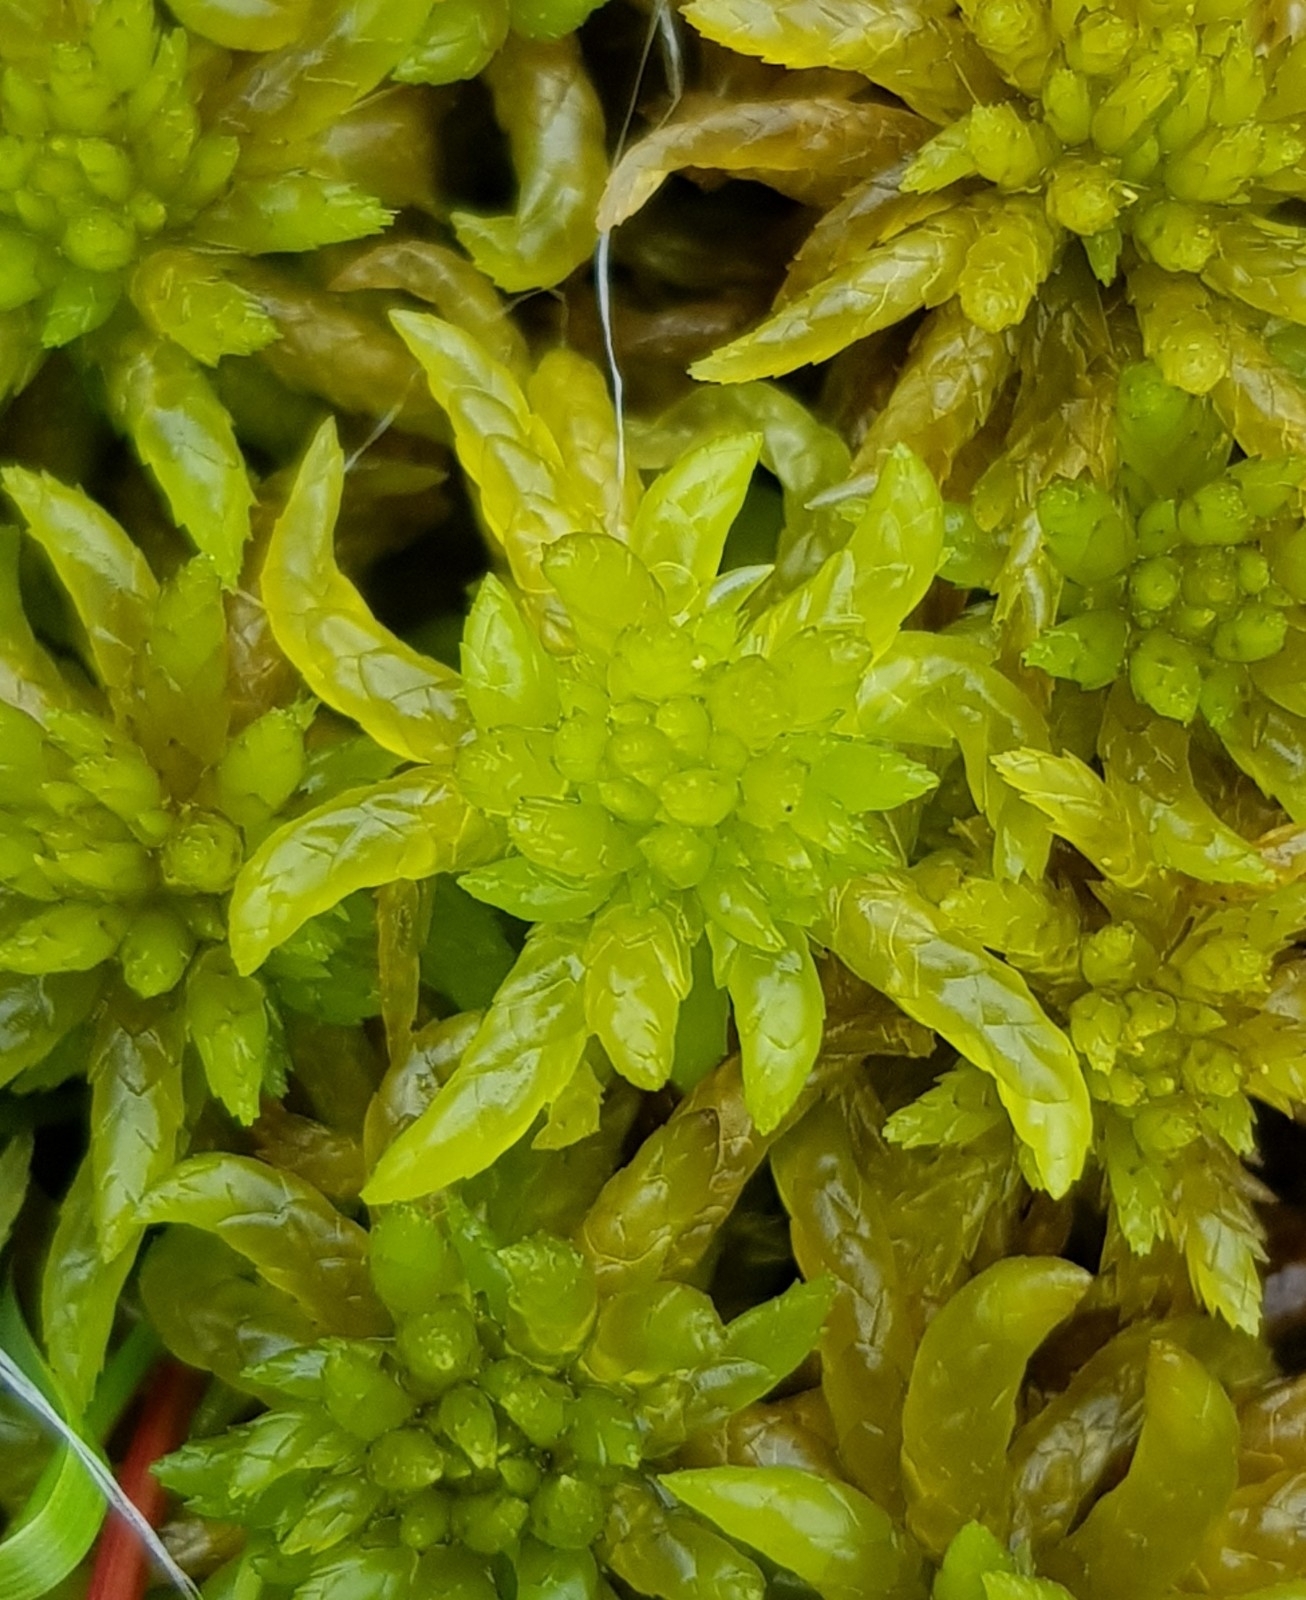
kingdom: Plantae
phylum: Bryophyta
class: Sphagnopsida
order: Sphagnales
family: Sphagnaceae
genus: Sphagnum
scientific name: Sphagnum denticulatum
